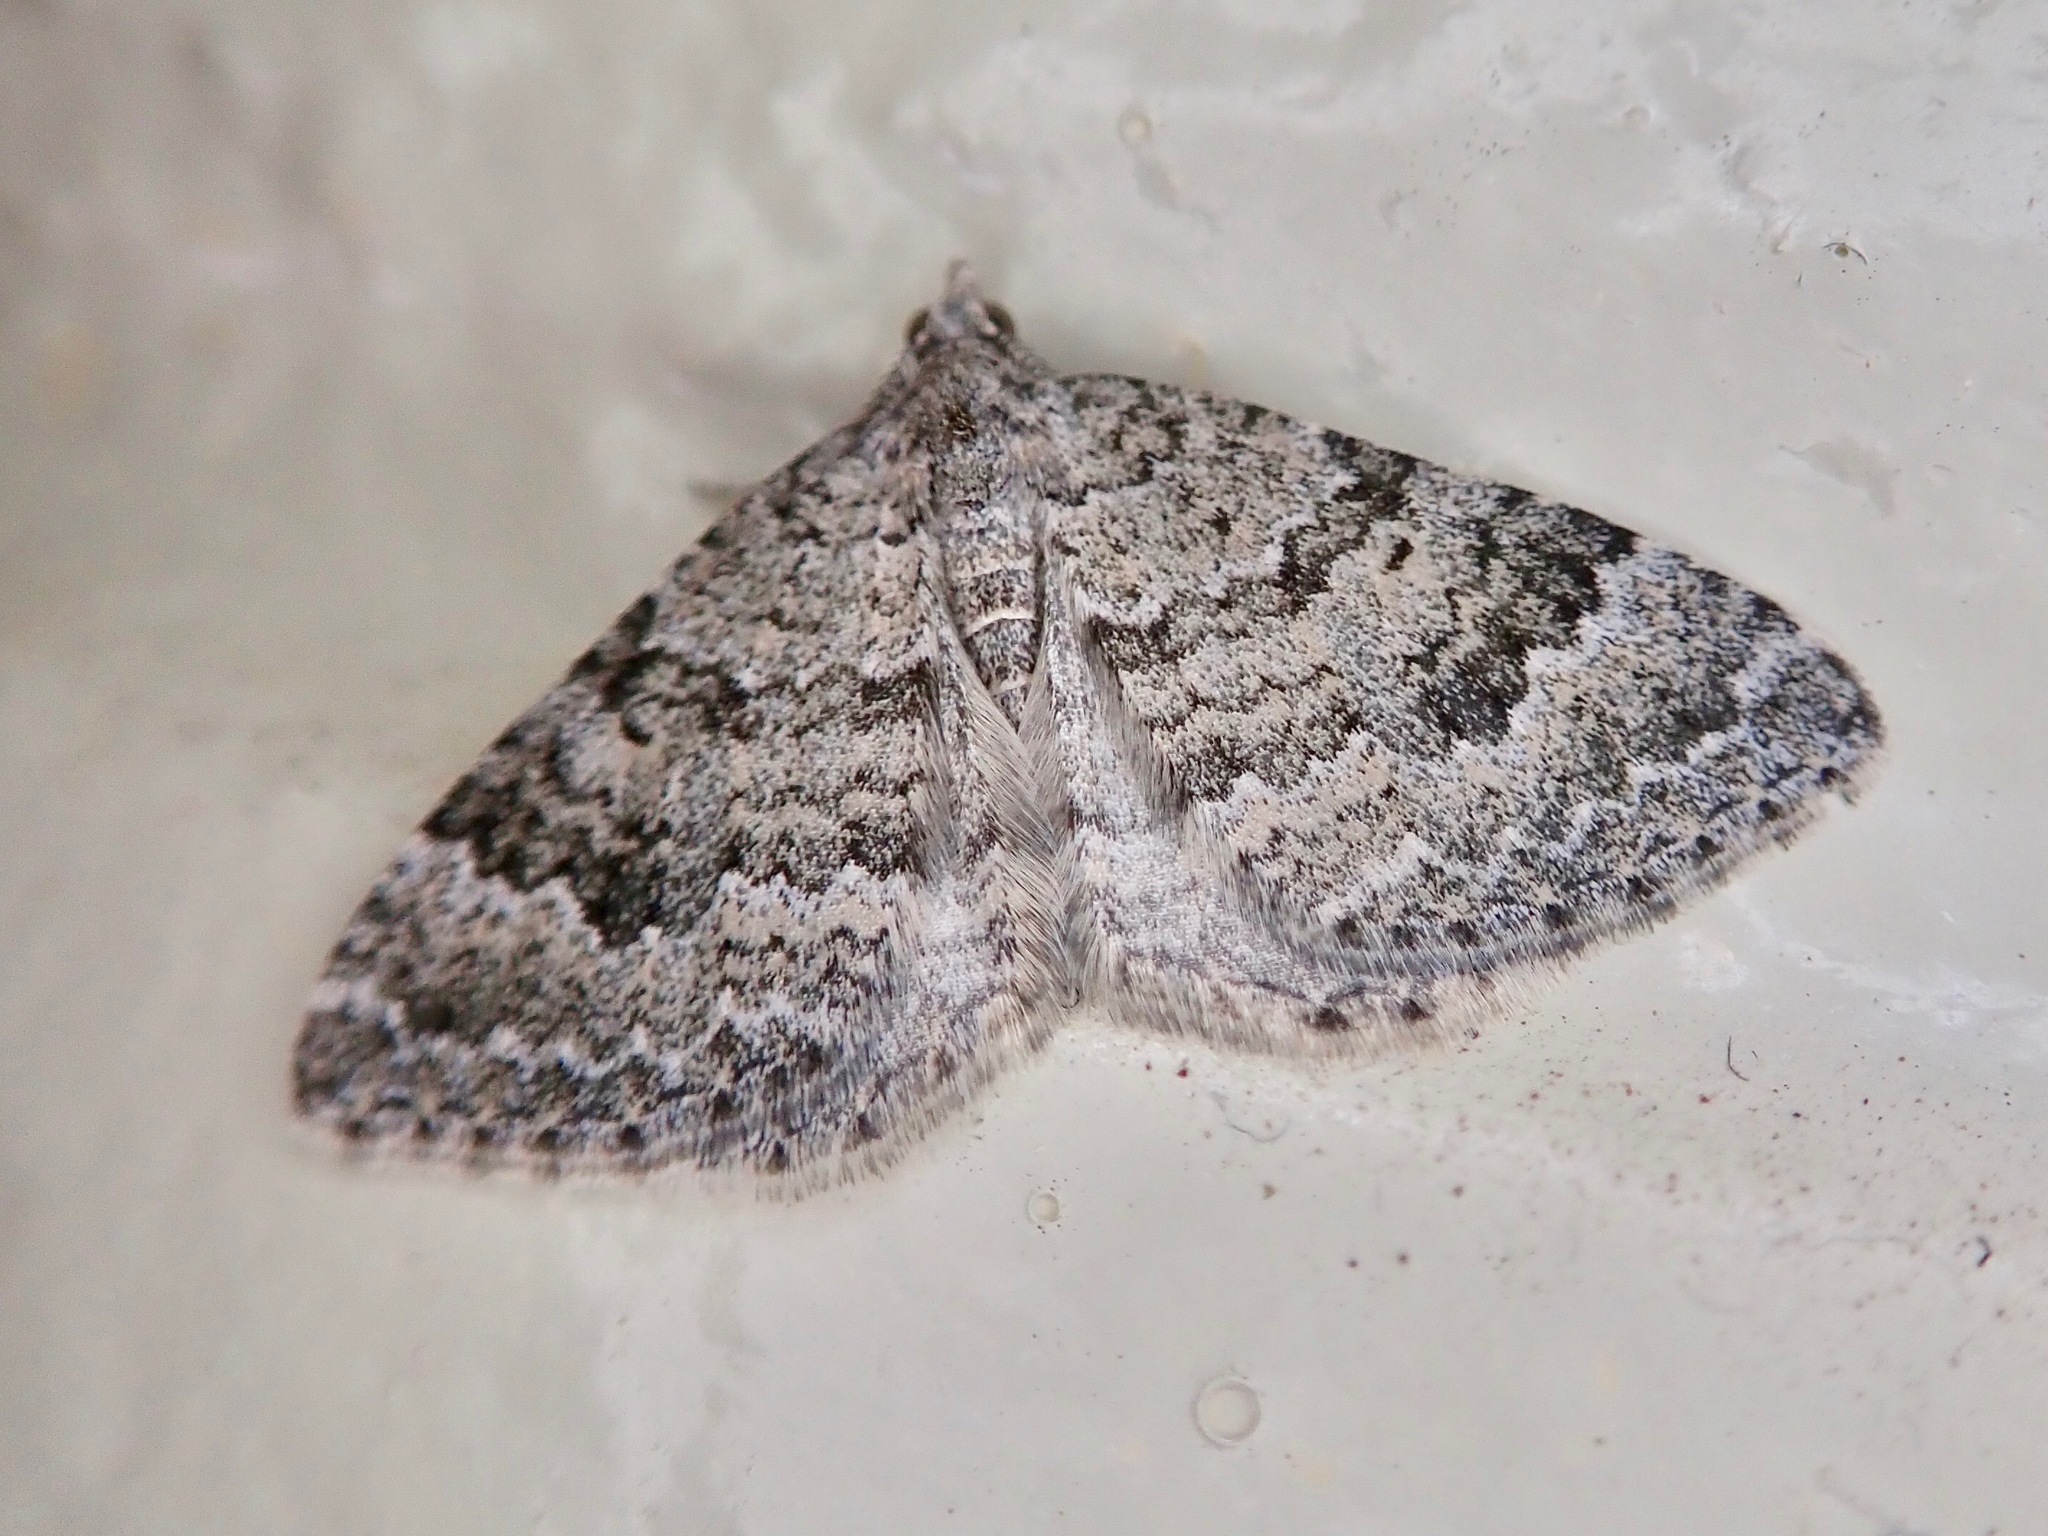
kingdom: Animalia
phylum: Arthropoda
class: Insecta
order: Lepidoptera
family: Geometridae
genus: Helastia
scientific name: Helastia corcularia
